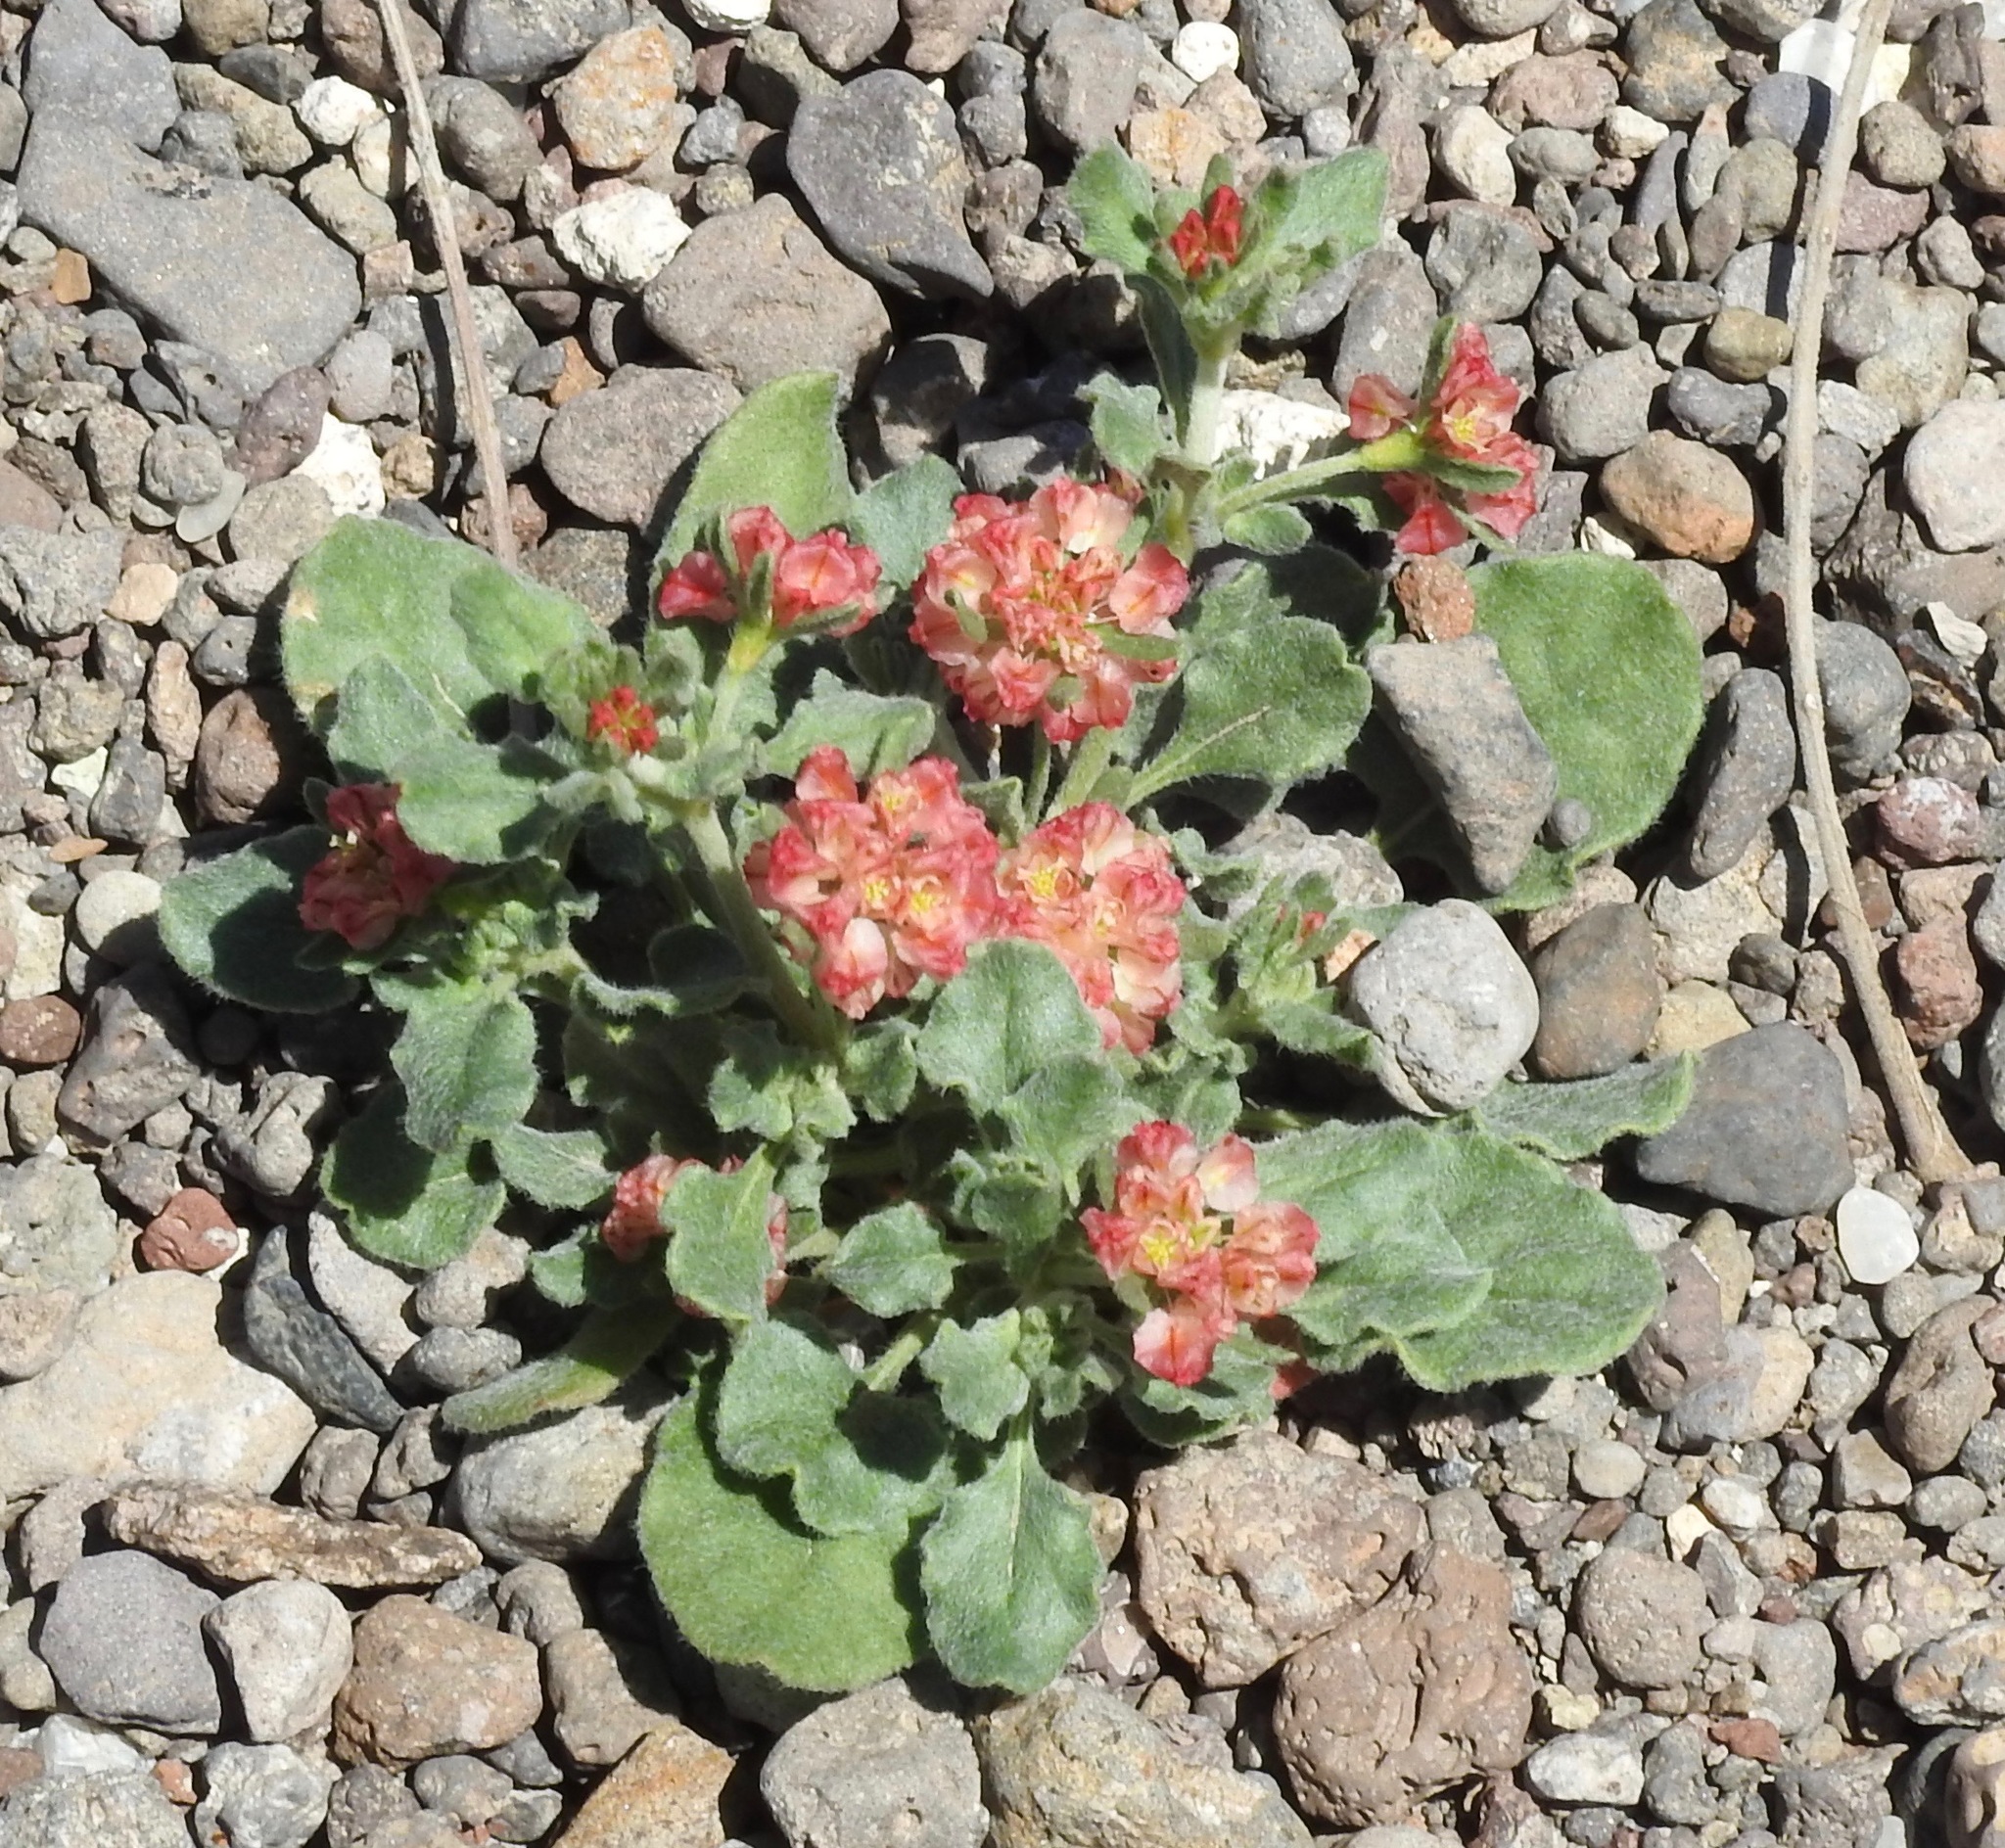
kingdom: Plantae
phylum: Tracheophyta
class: Magnoliopsida
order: Caryophyllales
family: Polygonaceae
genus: Eriogonum
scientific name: Eriogonum abertianum
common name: Abert's wild buckwheat
